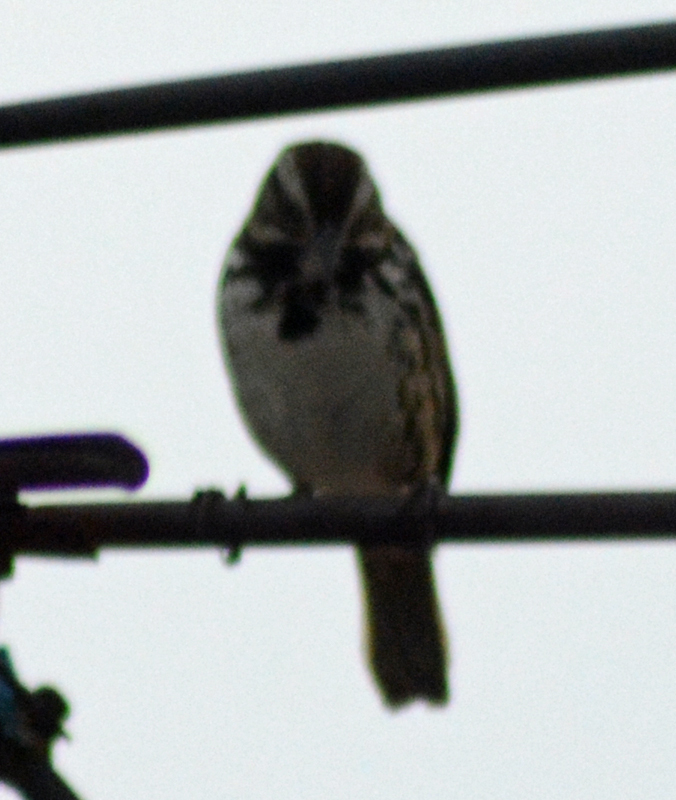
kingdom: Animalia
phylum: Chordata
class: Aves
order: Passeriformes
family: Passerellidae
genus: Melospiza
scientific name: Melospiza melodia
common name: Song sparrow
